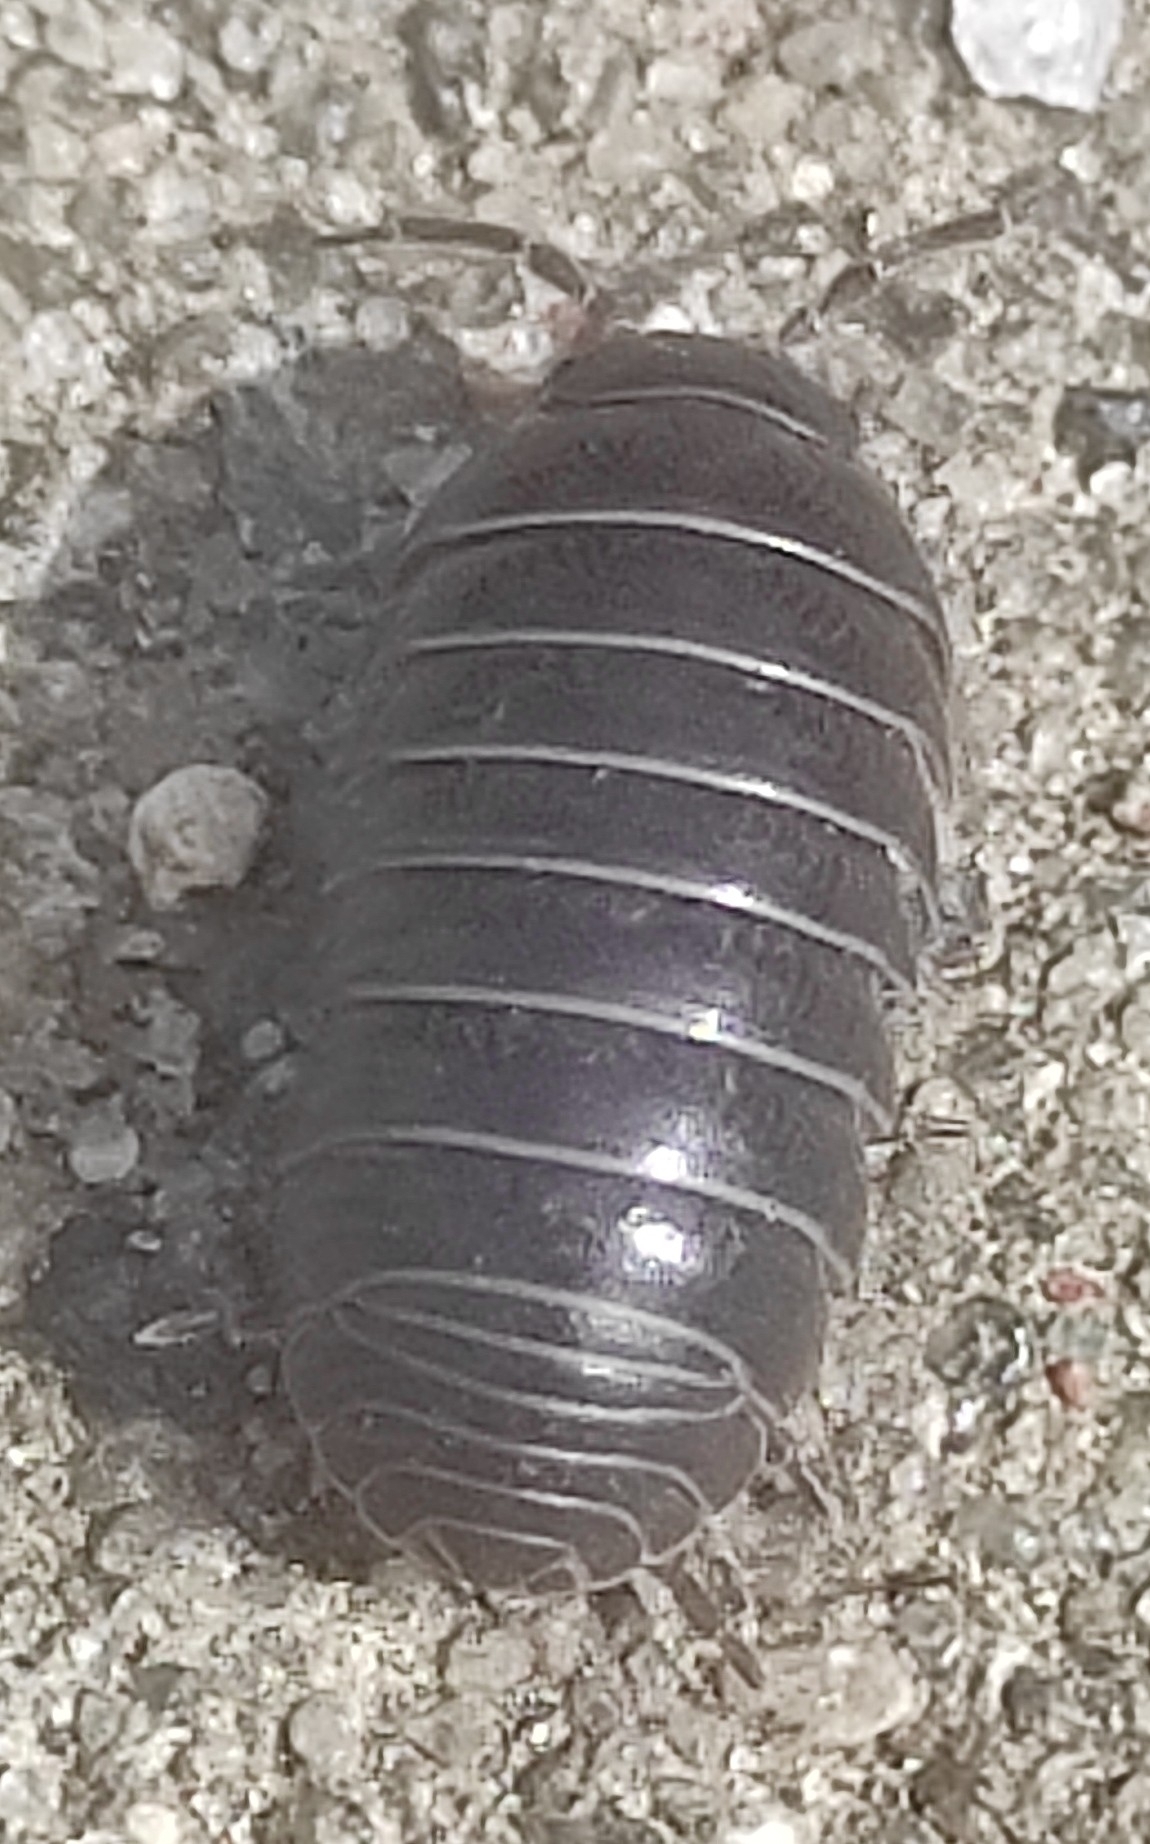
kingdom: Animalia
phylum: Arthropoda
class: Malacostraca
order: Isopoda
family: Armadillidiidae
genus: Armadillidium
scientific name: Armadillidium vulgare
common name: Common pill woodlouse
